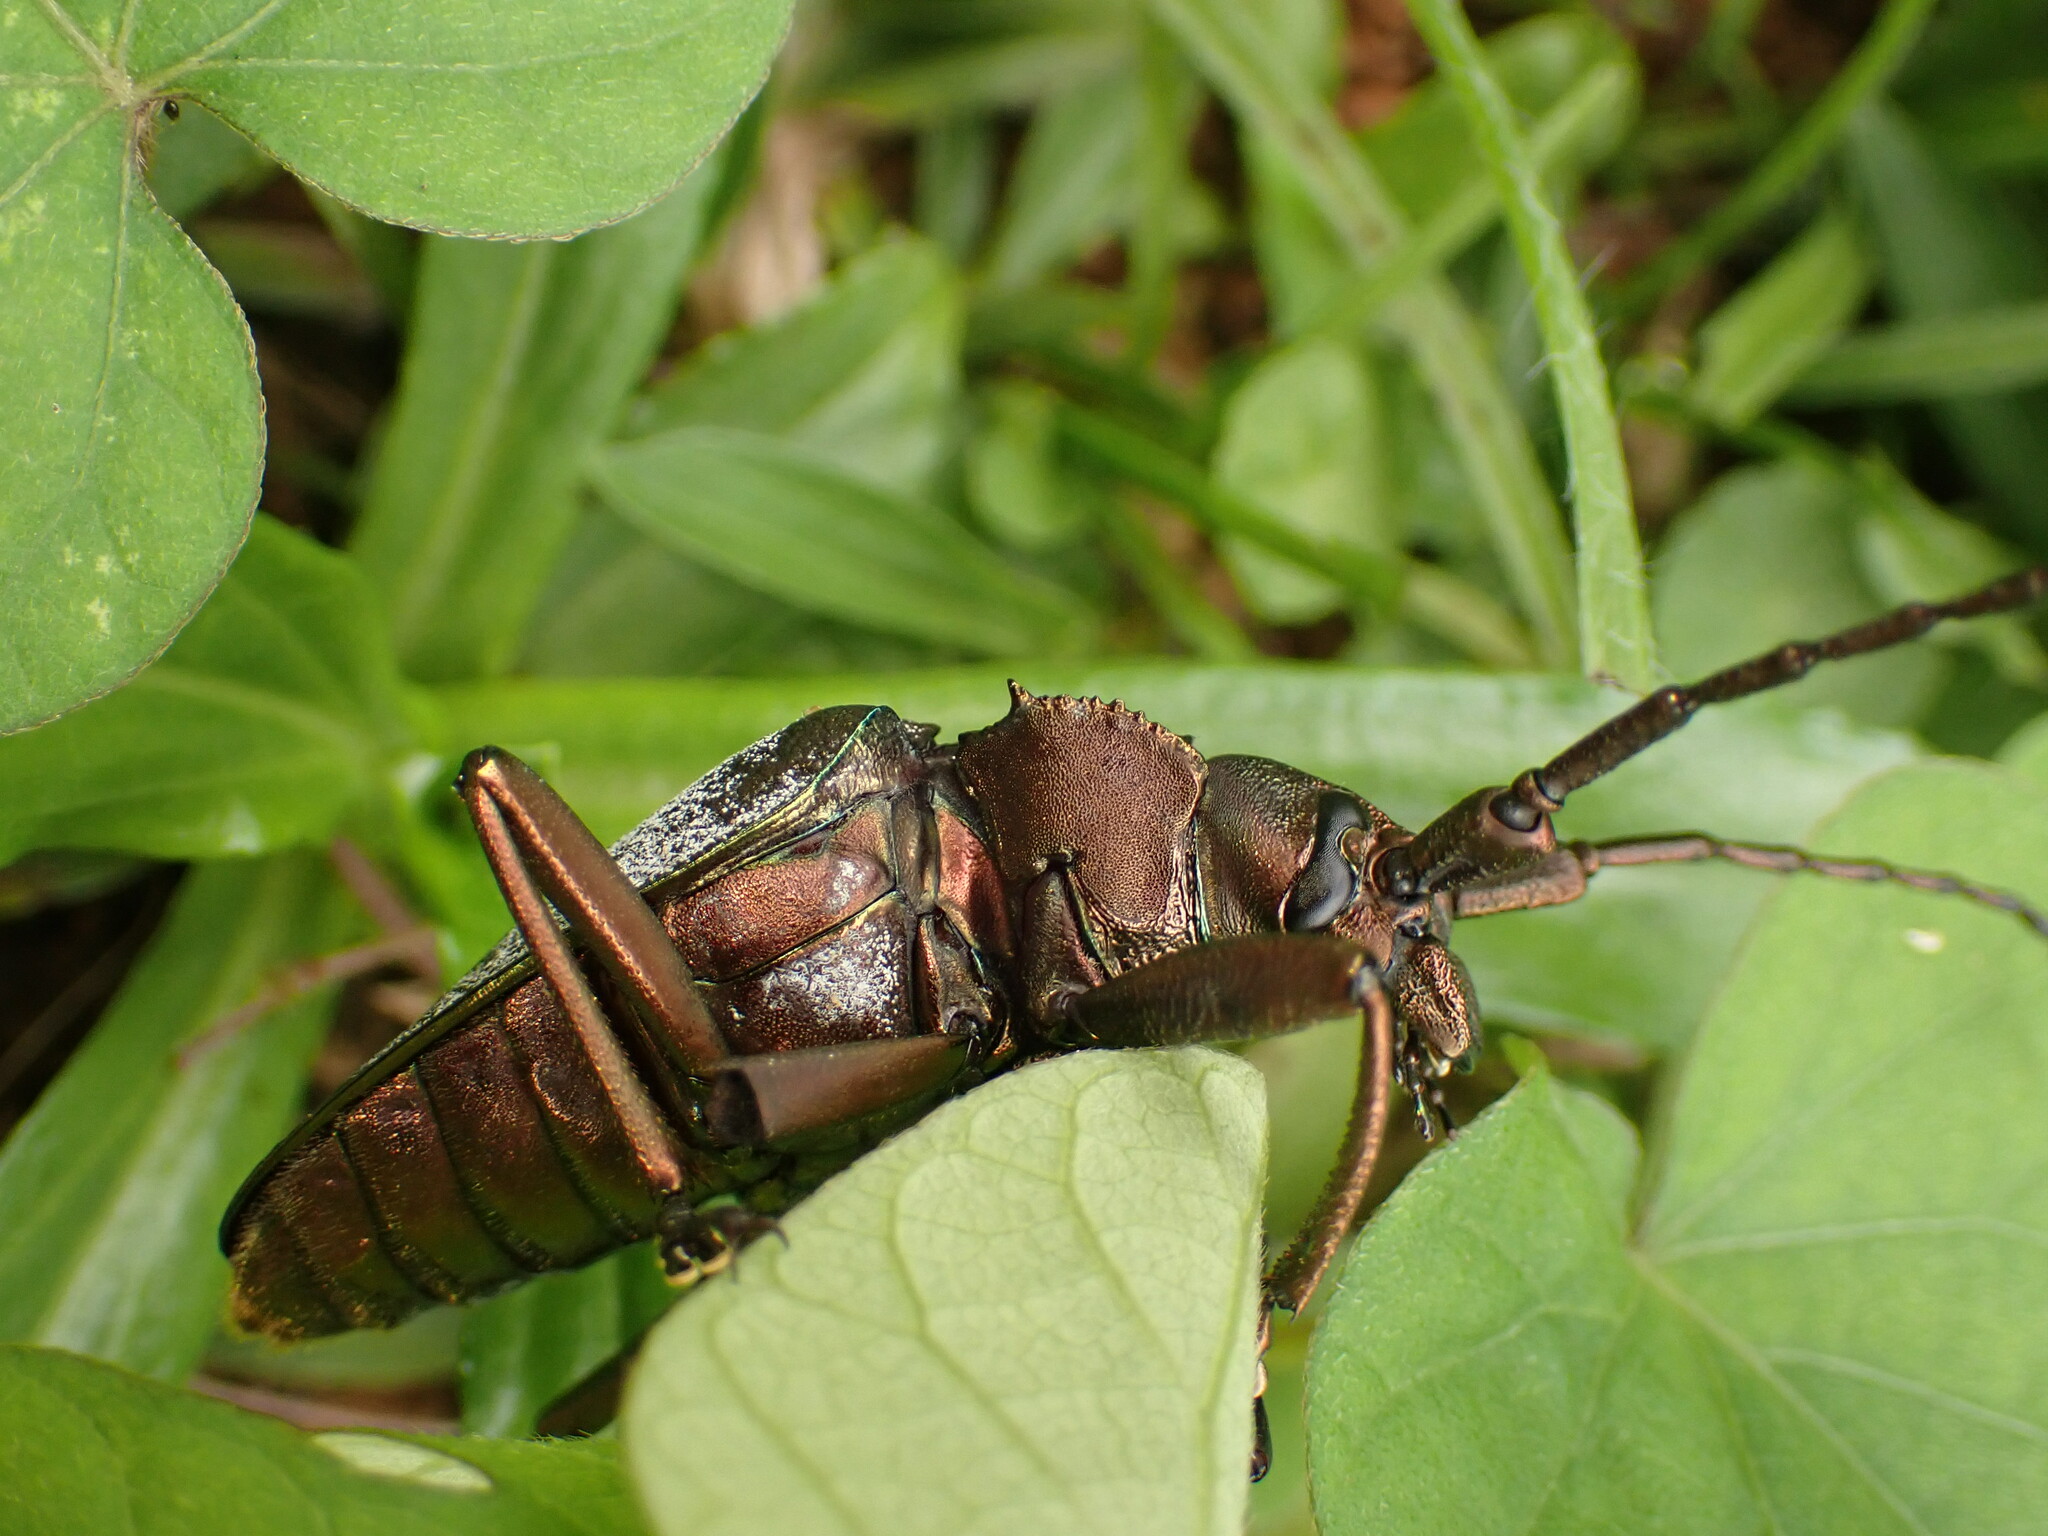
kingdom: Animalia
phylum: Arthropoda
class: Insecta
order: Coleoptera
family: Cerambycidae
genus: Pyrodes
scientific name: Pyrodes nitidus
